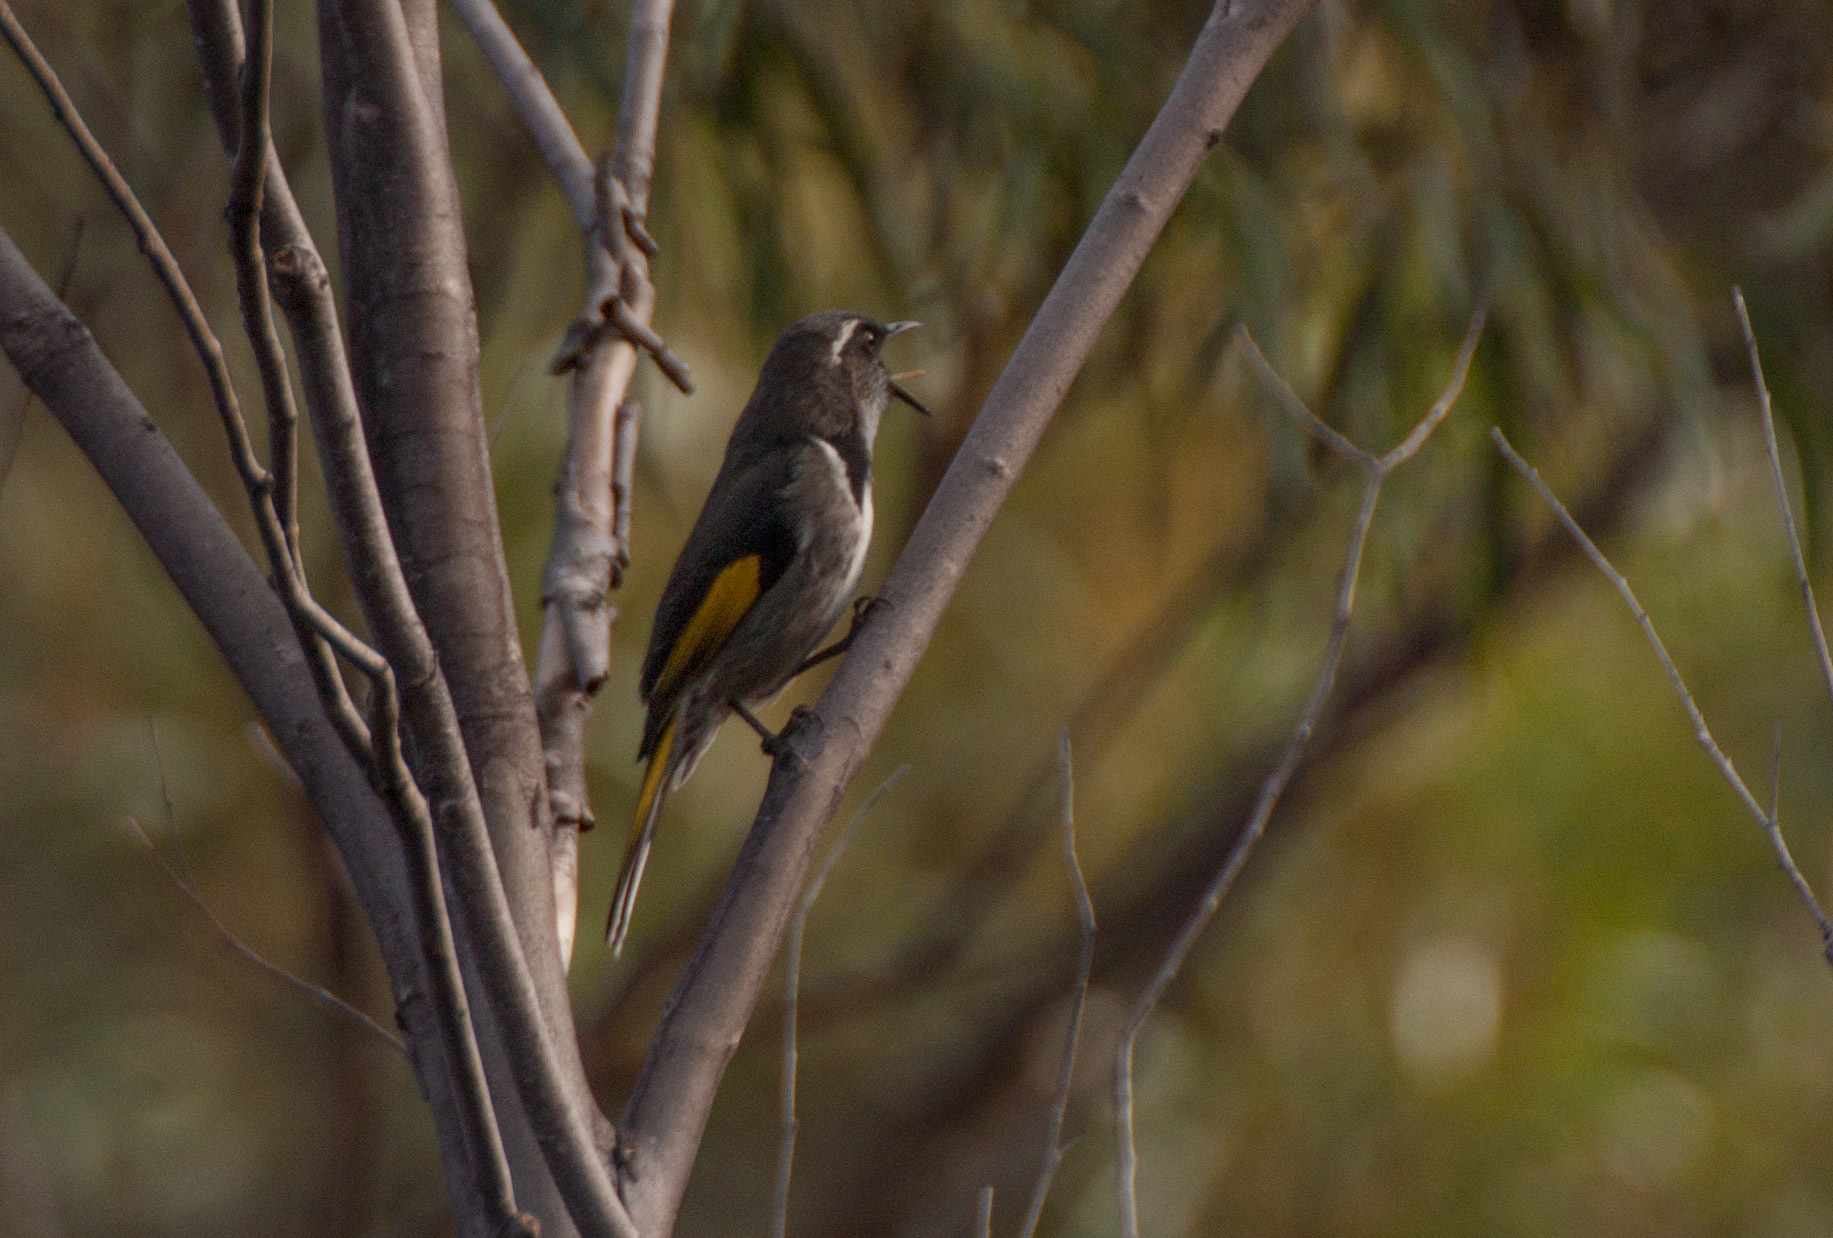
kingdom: Animalia
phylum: Chordata
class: Aves
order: Passeriformes
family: Meliphagidae
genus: Phylidonyris
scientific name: Phylidonyris pyrrhopterus
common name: Crescent honeyeater
